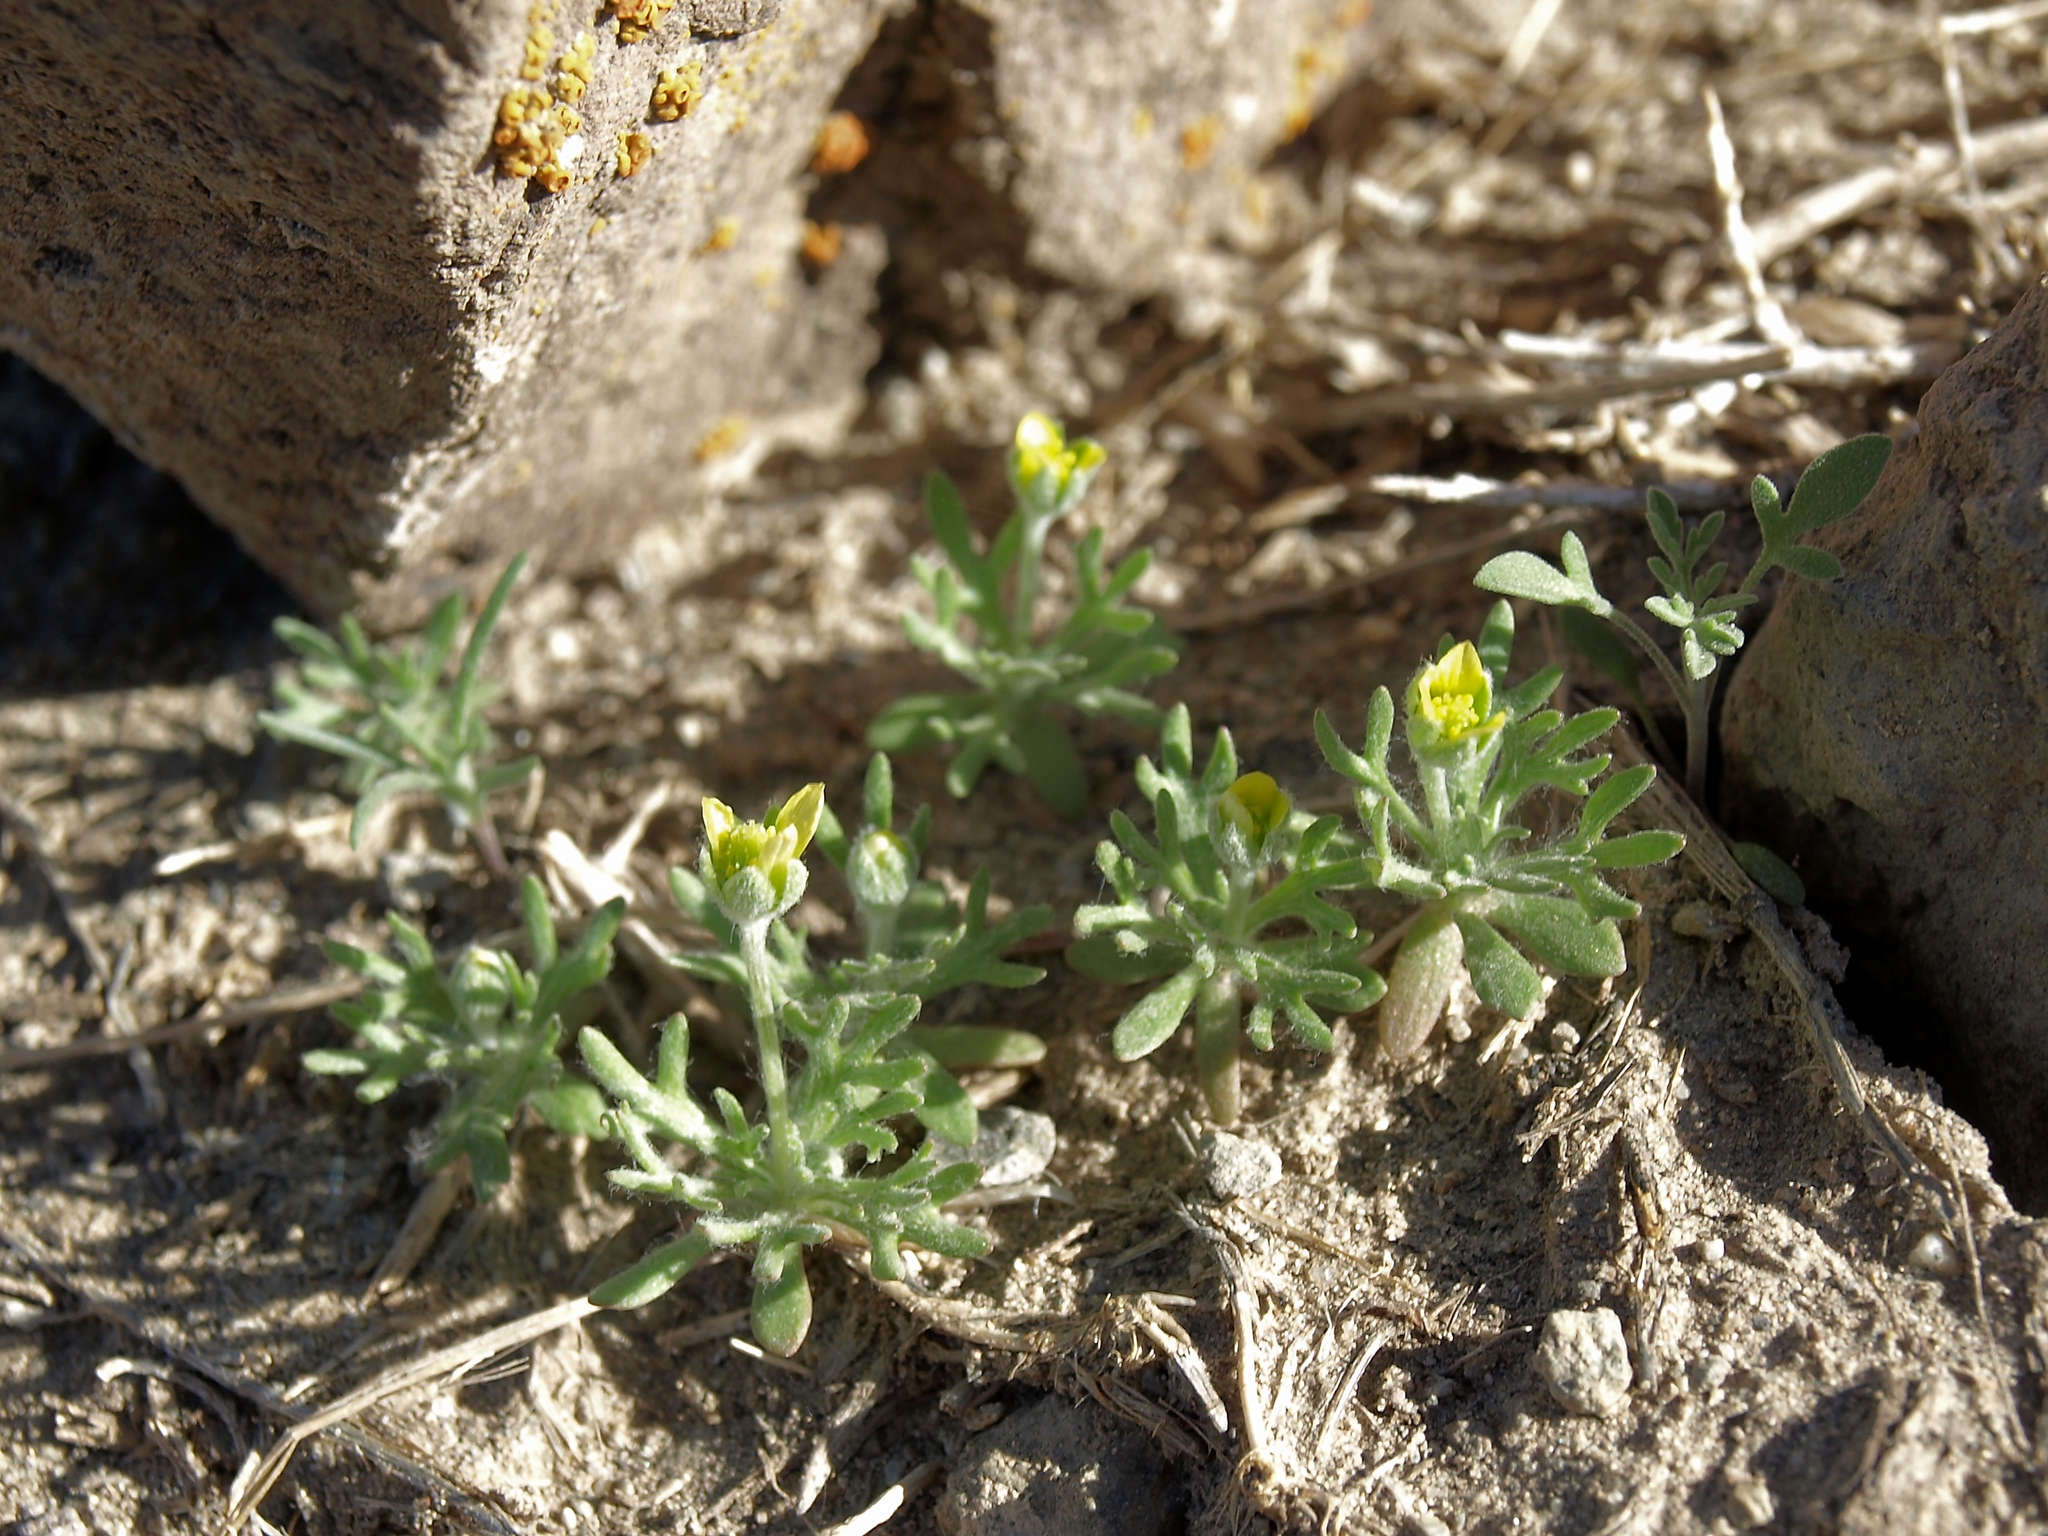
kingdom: Plantae
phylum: Tracheophyta
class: Magnoliopsida
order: Ranunculales
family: Ranunculaceae
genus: Ceratocephala
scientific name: Ceratocephala orthoceras
